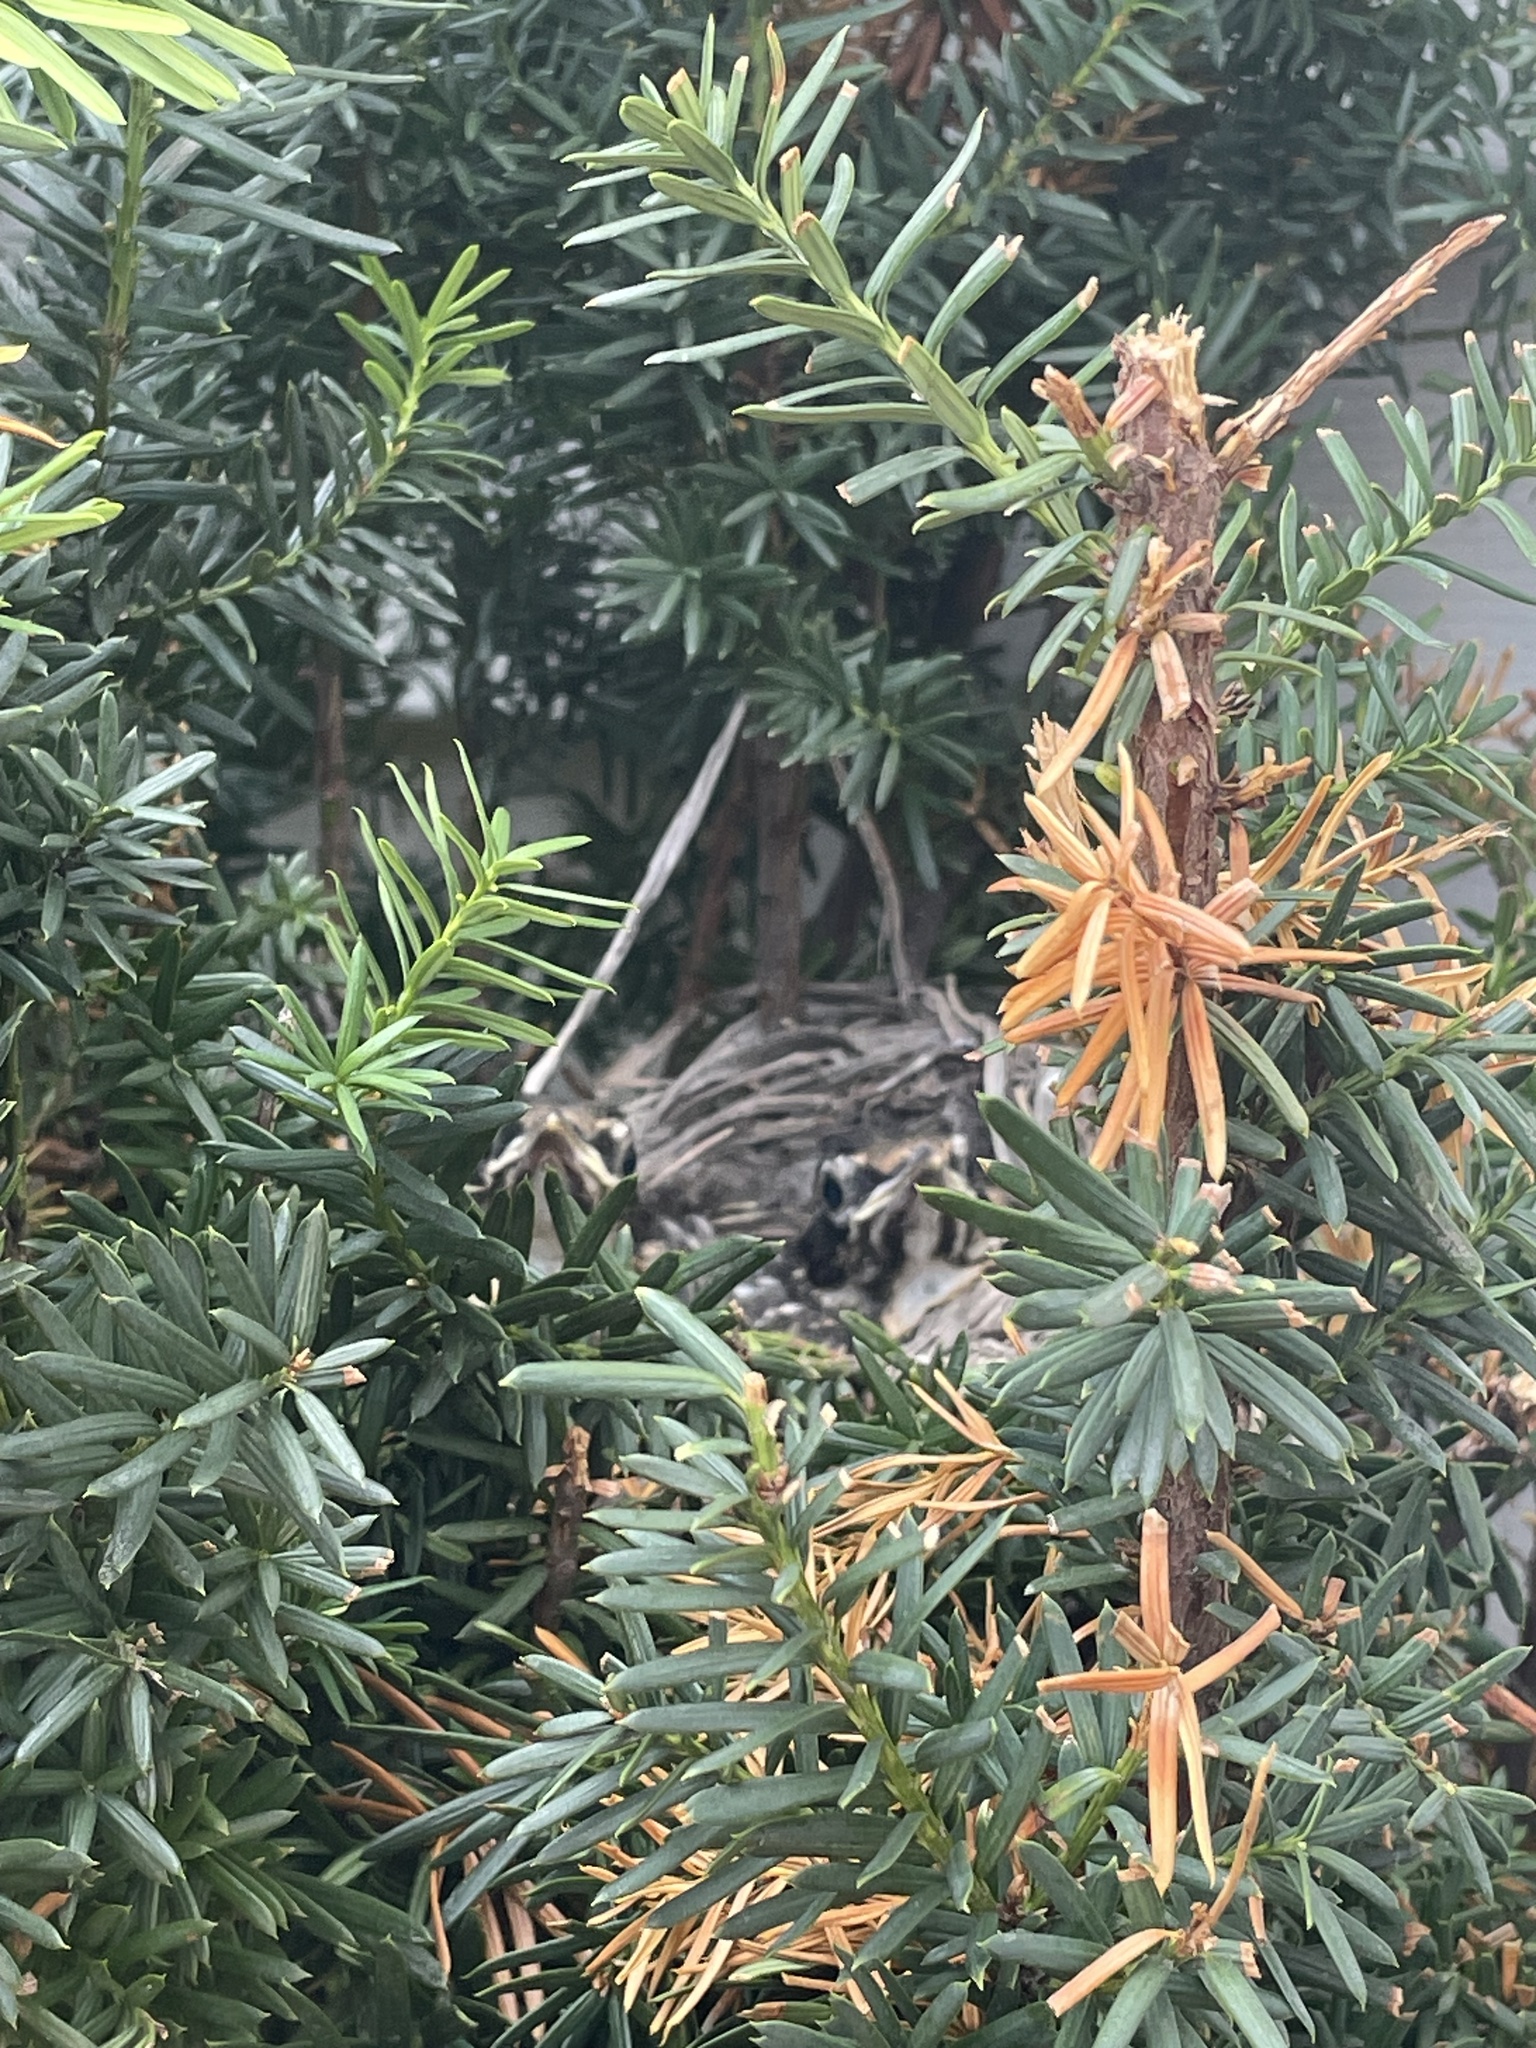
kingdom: Animalia
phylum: Chordata
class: Aves
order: Passeriformes
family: Turdidae
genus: Turdus
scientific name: Turdus migratorius
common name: American robin
